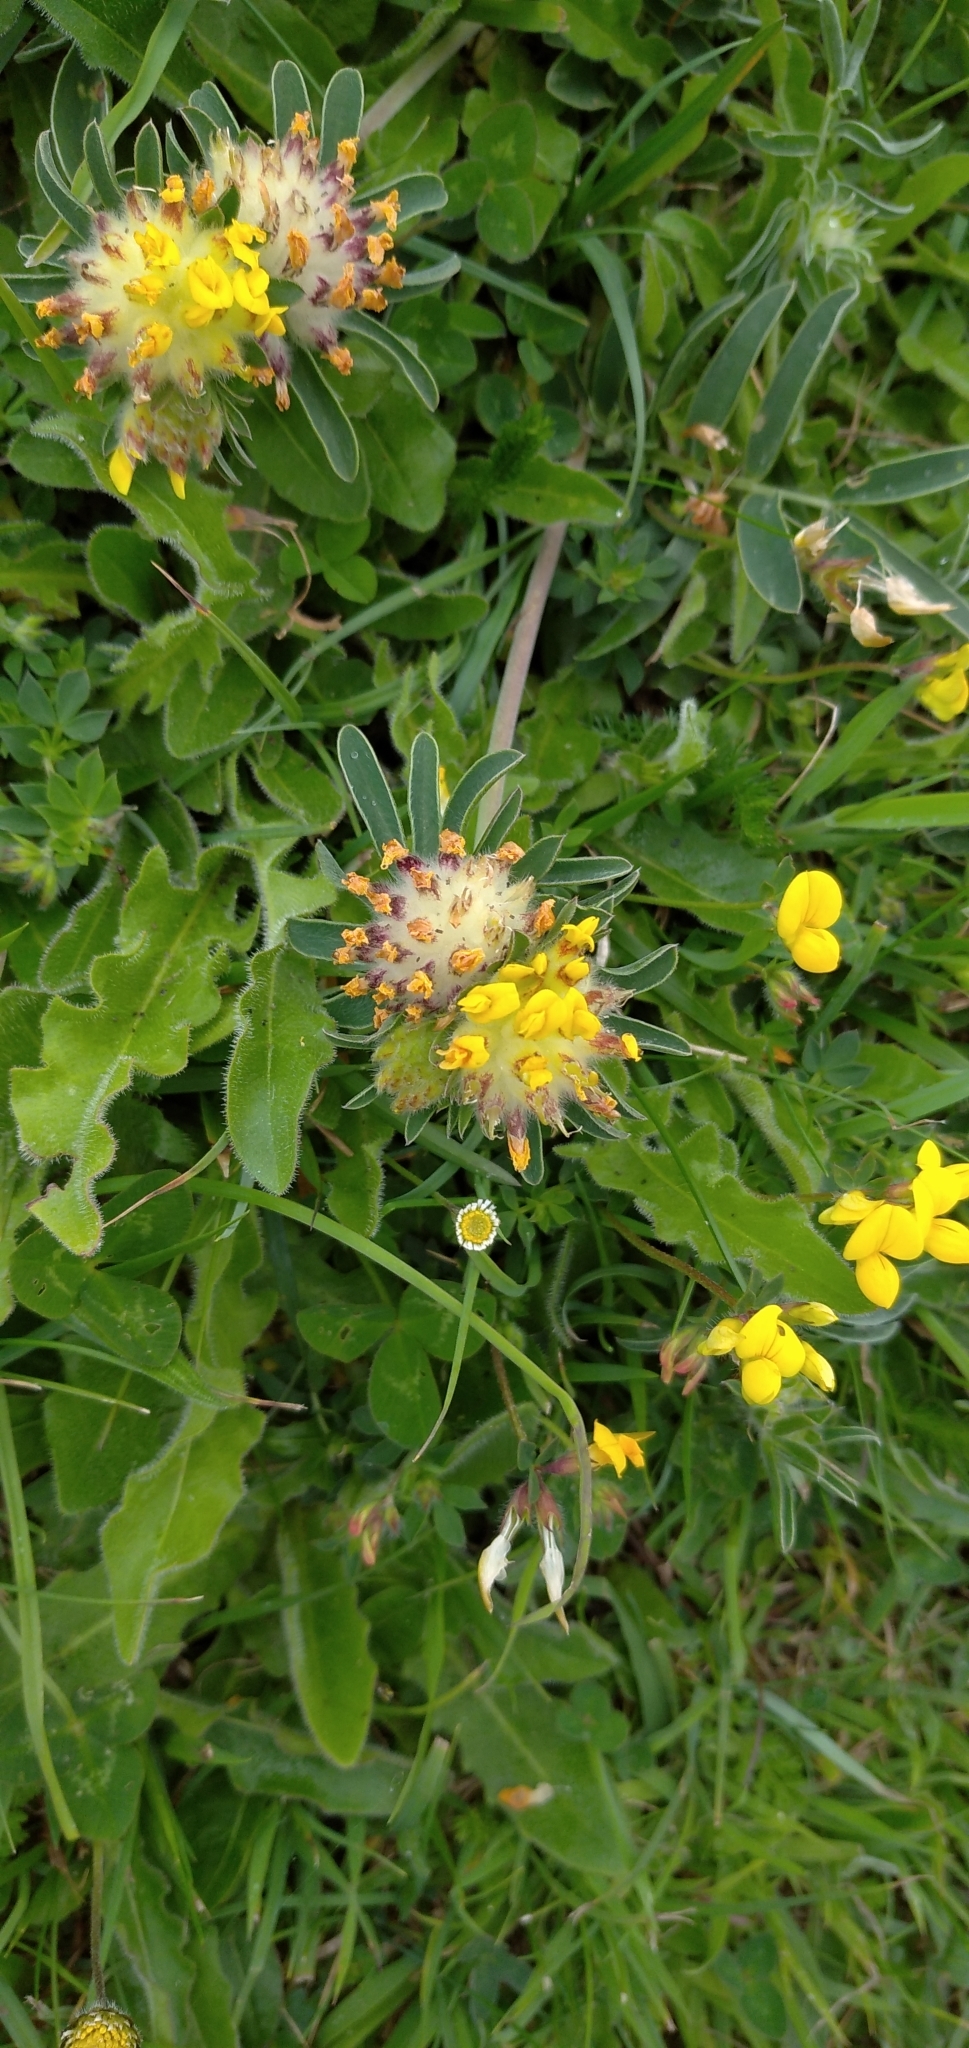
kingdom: Plantae
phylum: Tracheophyta
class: Magnoliopsida
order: Fabales
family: Fabaceae
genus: Anthyllis
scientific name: Anthyllis vulneraria
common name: Kidney vetch
